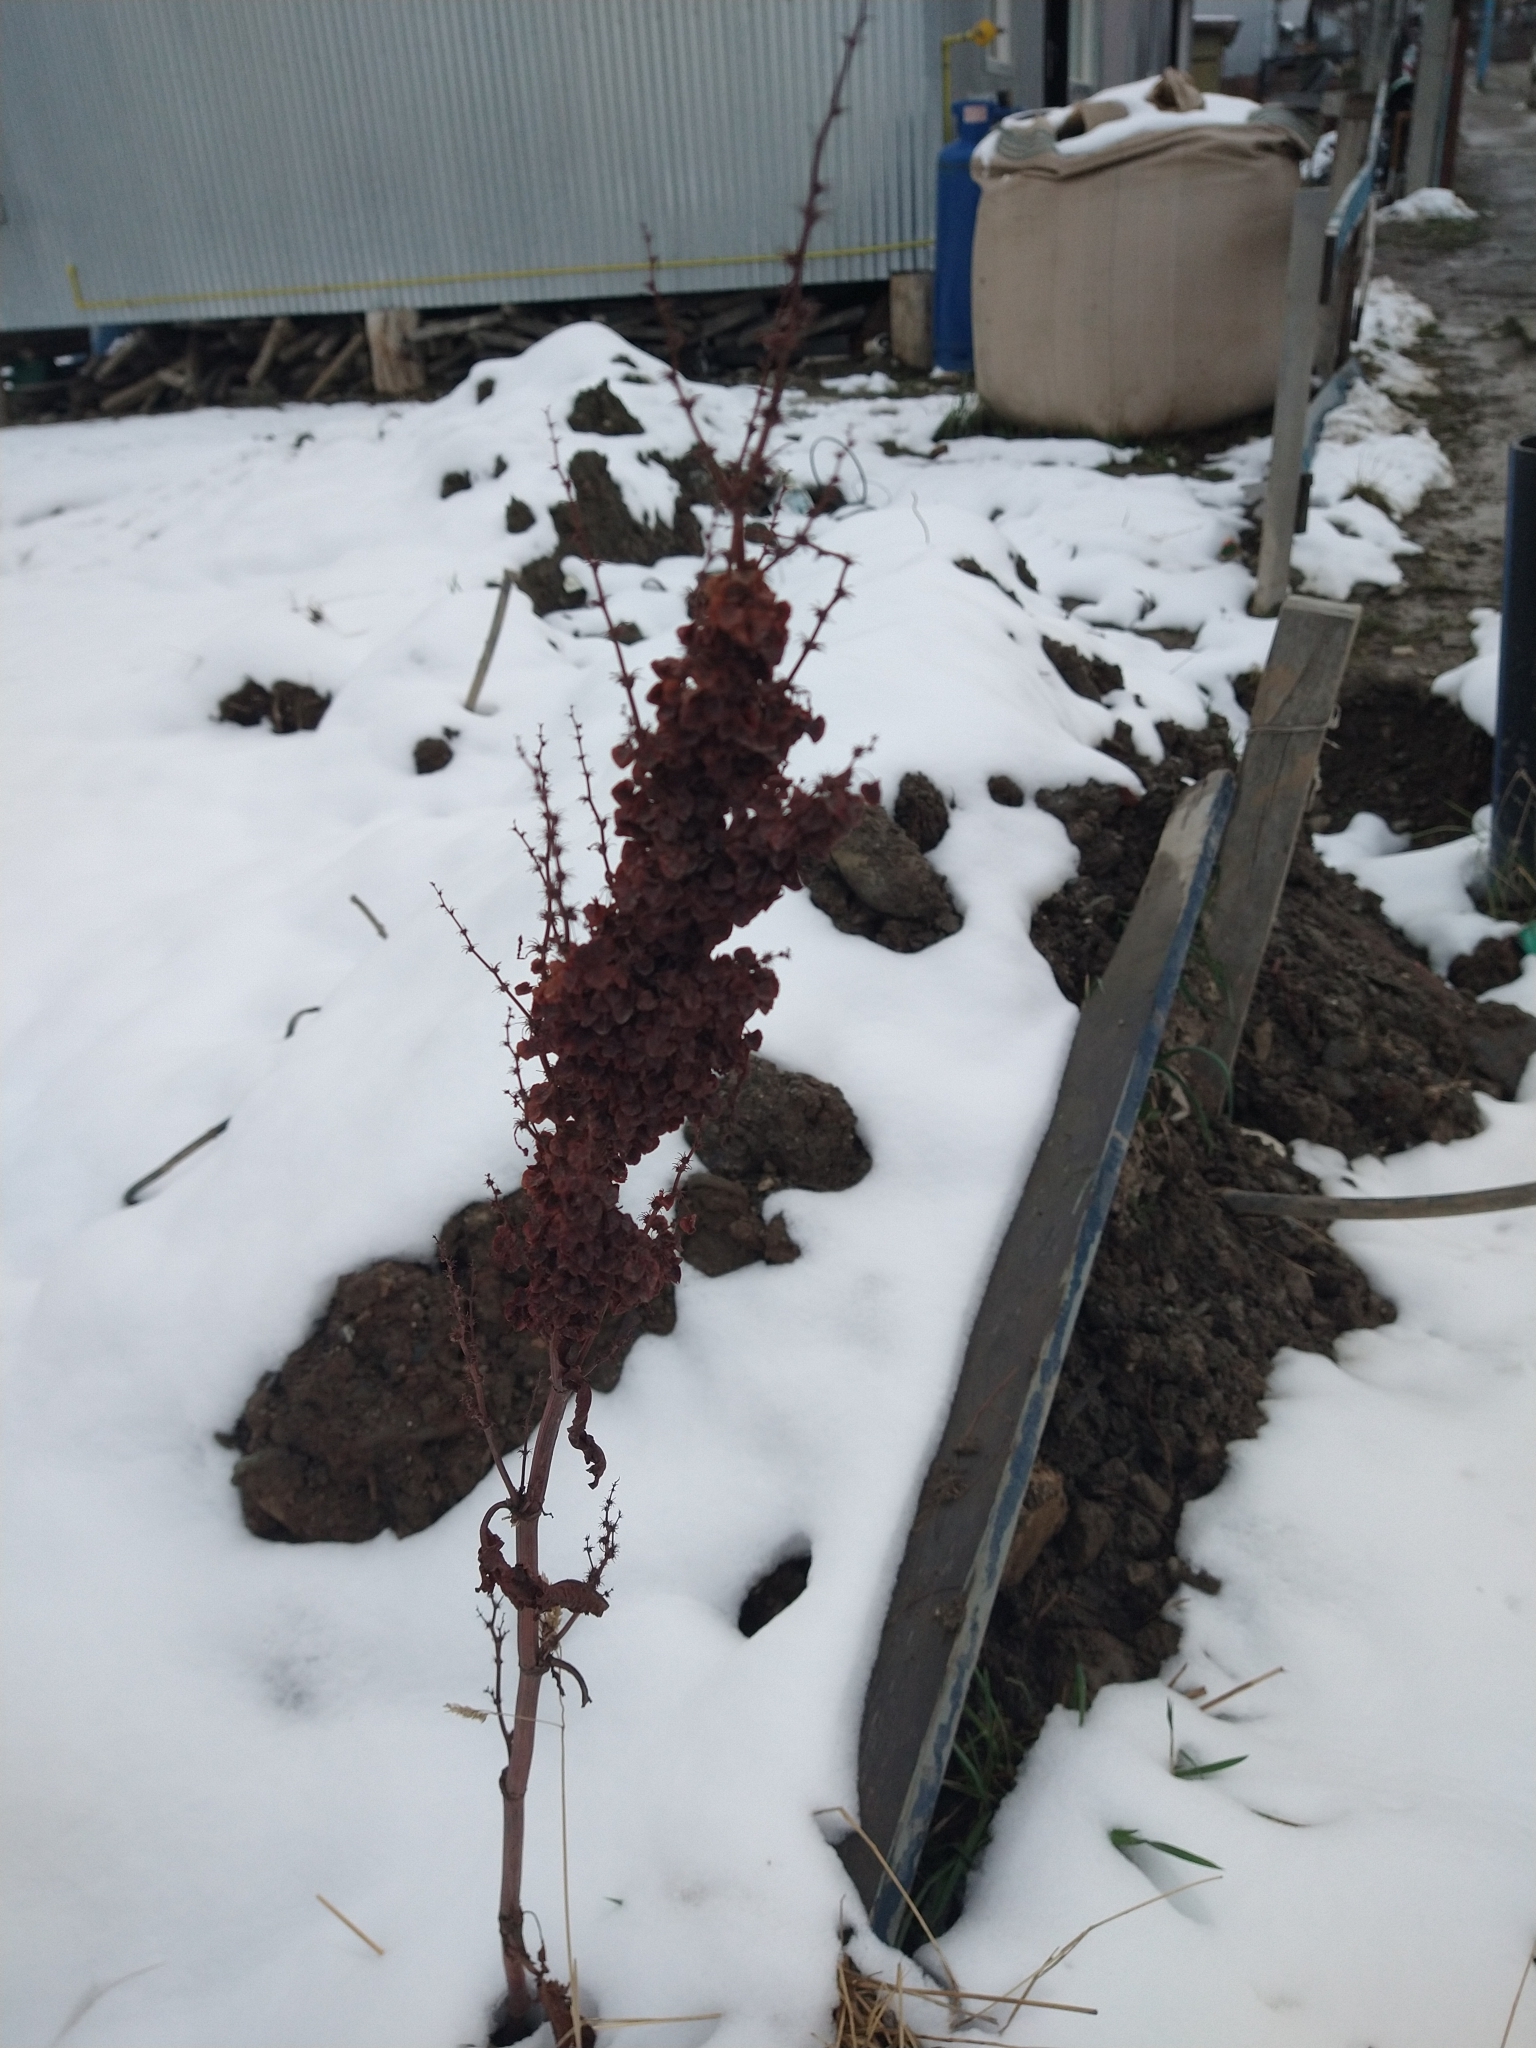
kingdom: Plantae
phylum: Tracheophyta
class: Magnoliopsida
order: Caryophyllales
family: Polygonaceae
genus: Rumex
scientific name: Rumex crispus
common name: Curled dock
